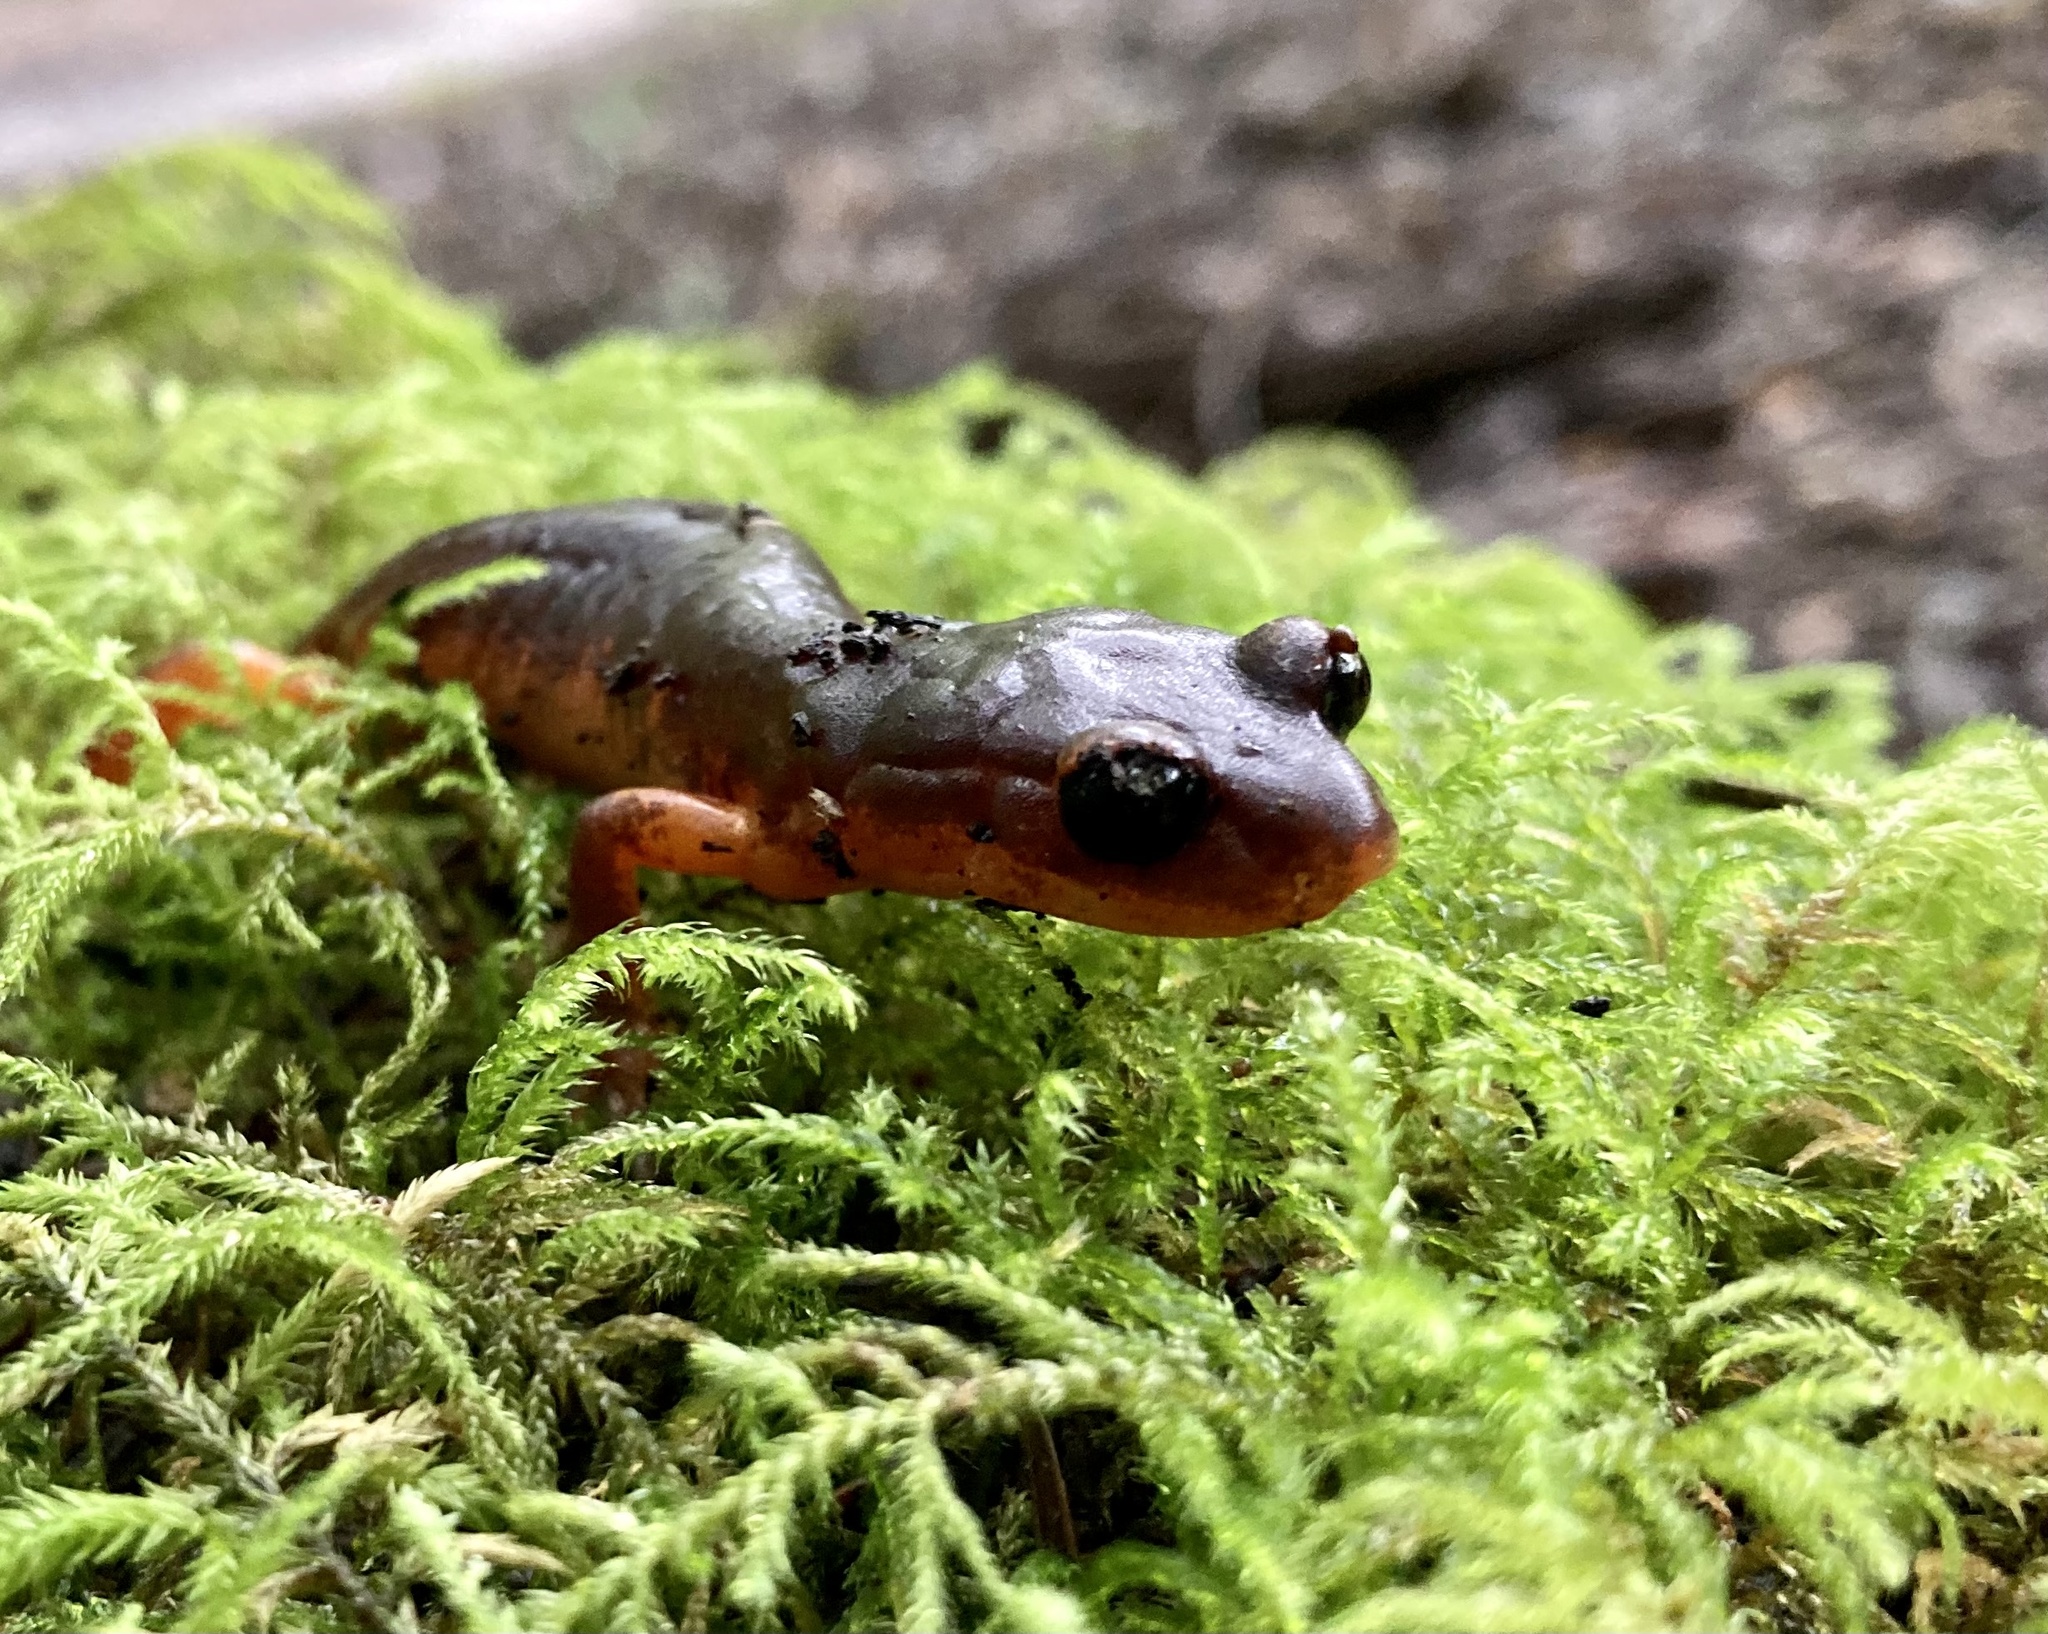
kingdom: Animalia
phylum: Chordata
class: Amphibia
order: Caudata
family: Plethodontidae
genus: Ensatina
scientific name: Ensatina eschscholtzii
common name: Ensatina
